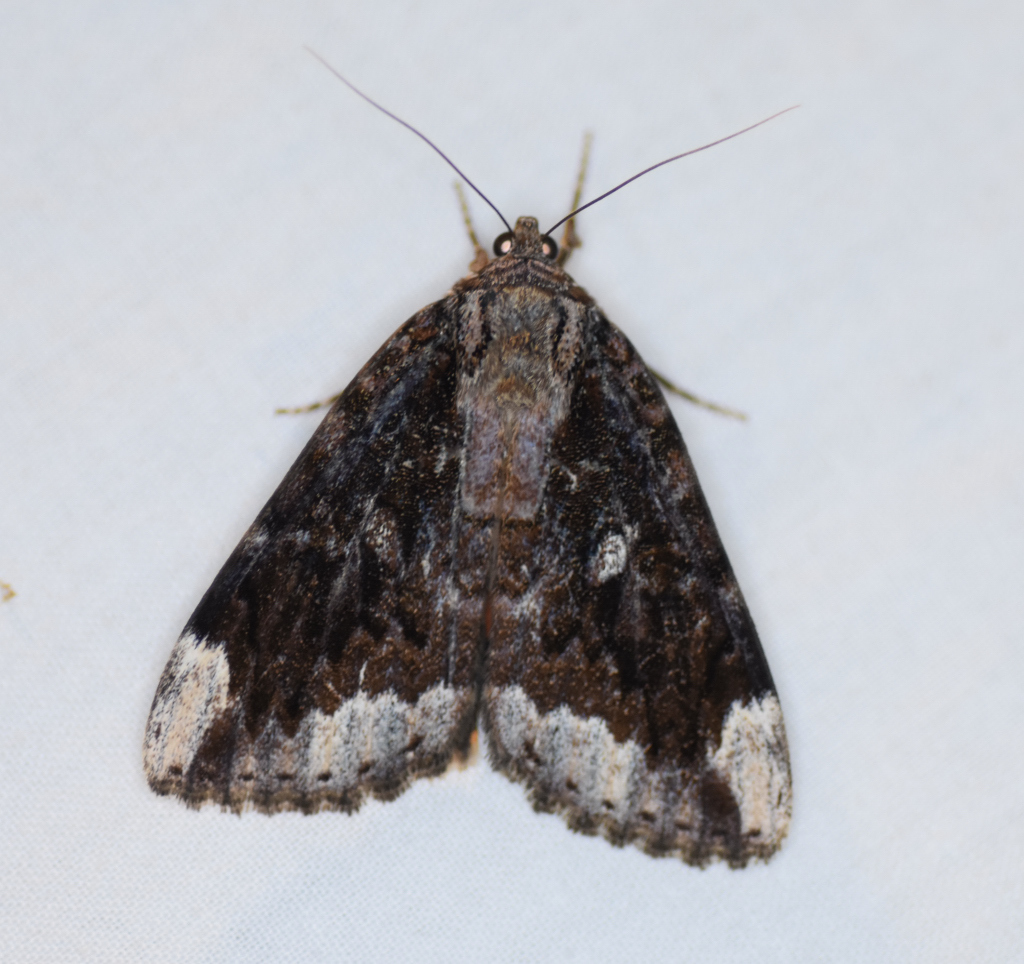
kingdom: Animalia
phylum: Arthropoda
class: Insecta
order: Lepidoptera
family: Erebidae
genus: Catocala
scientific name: Catocala innubens
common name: Betrothed underwing
